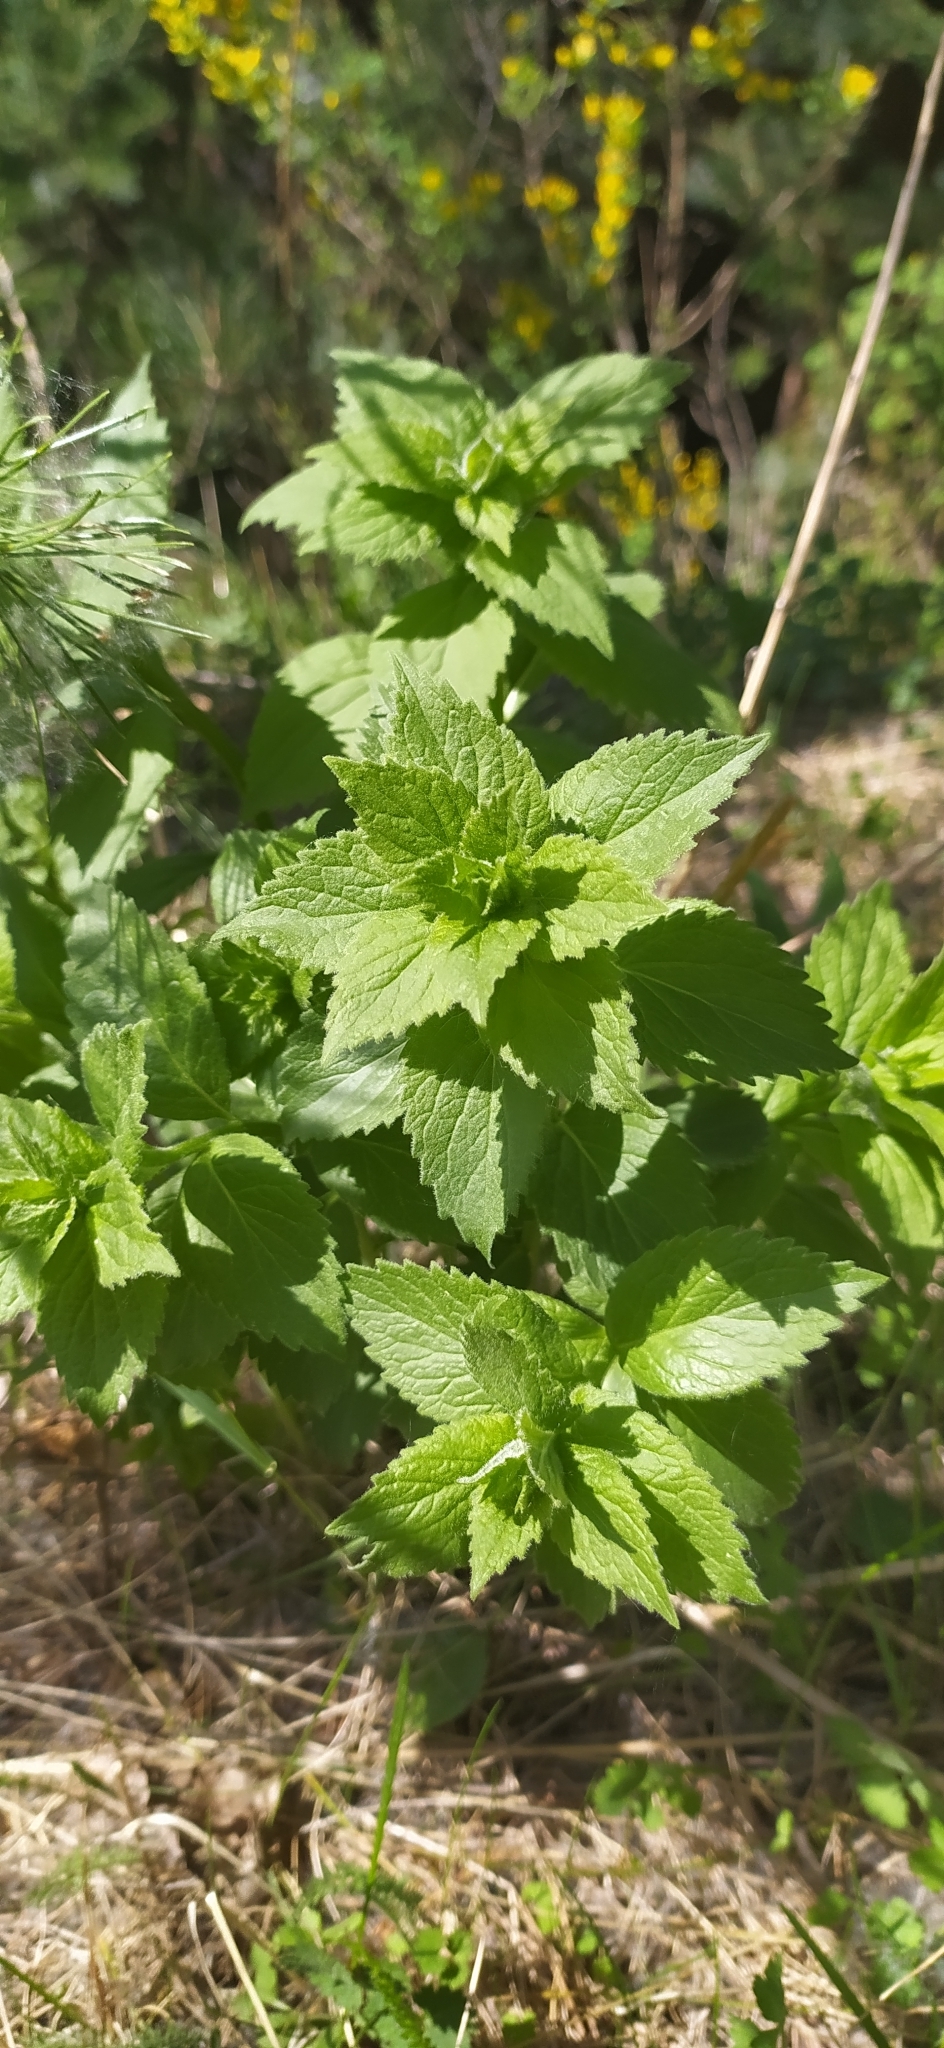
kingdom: Plantae
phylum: Tracheophyta
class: Magnoliopsida
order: Asterales
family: Campanulaceae
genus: Adenophora
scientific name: Adenophora liliifolia
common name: Lilyleaf ladybells
